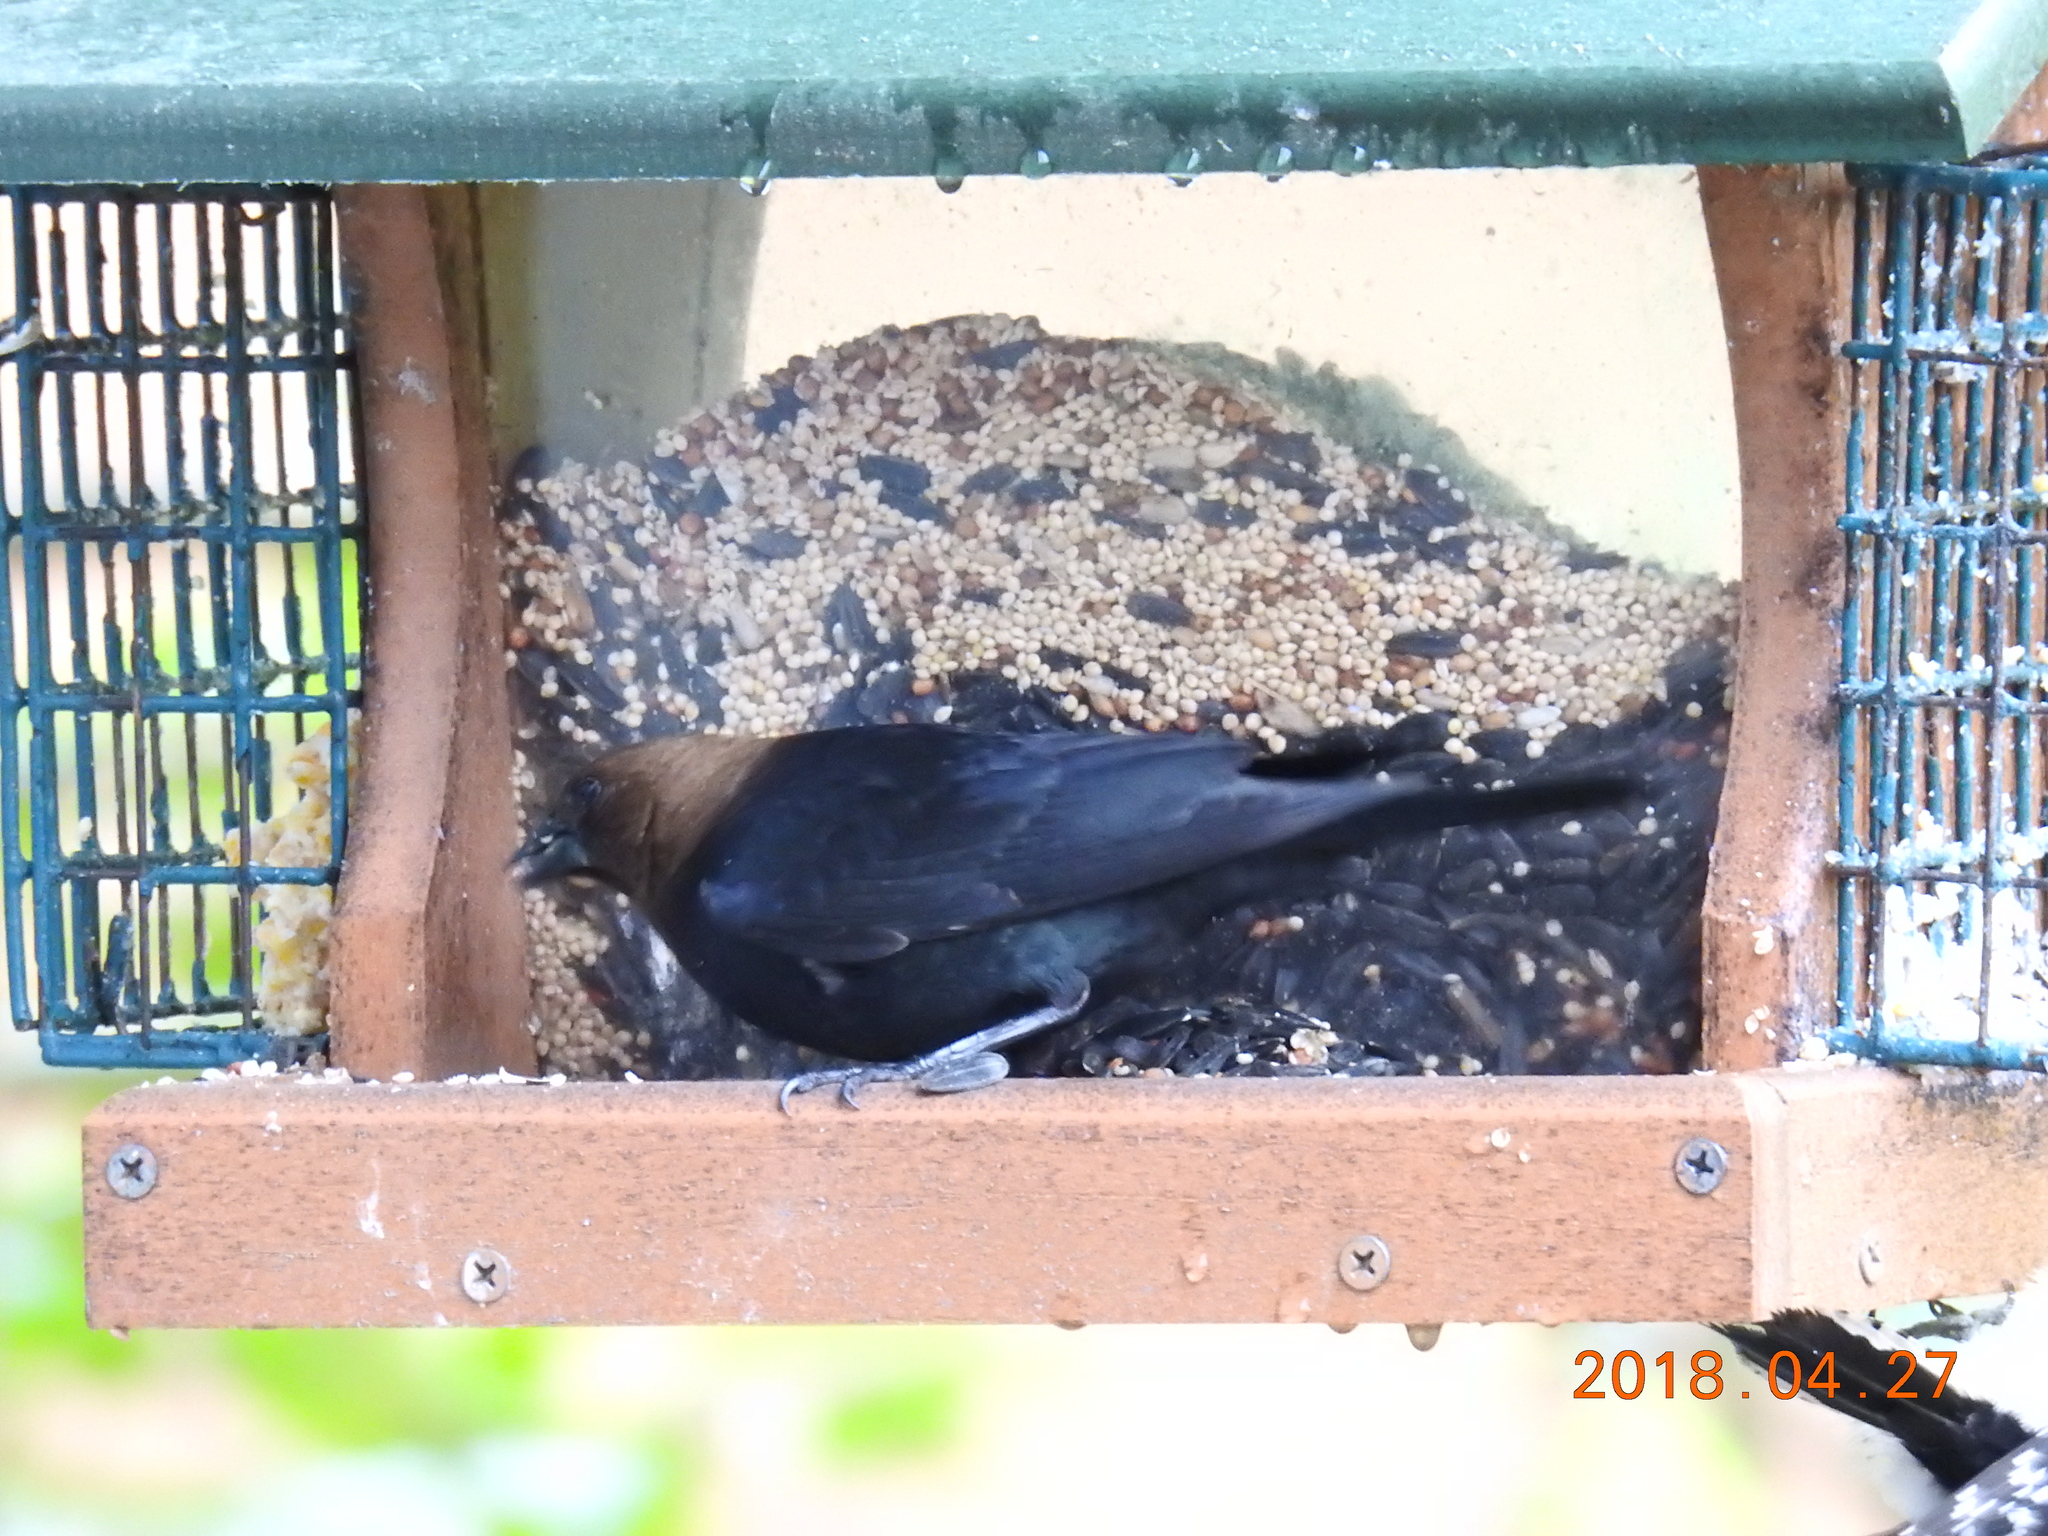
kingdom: Animalia
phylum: Chordata
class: Aves
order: Passeriformes
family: Icteridae
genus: Molothrus
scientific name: Molothrus ater
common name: Brown-headed cowbird
